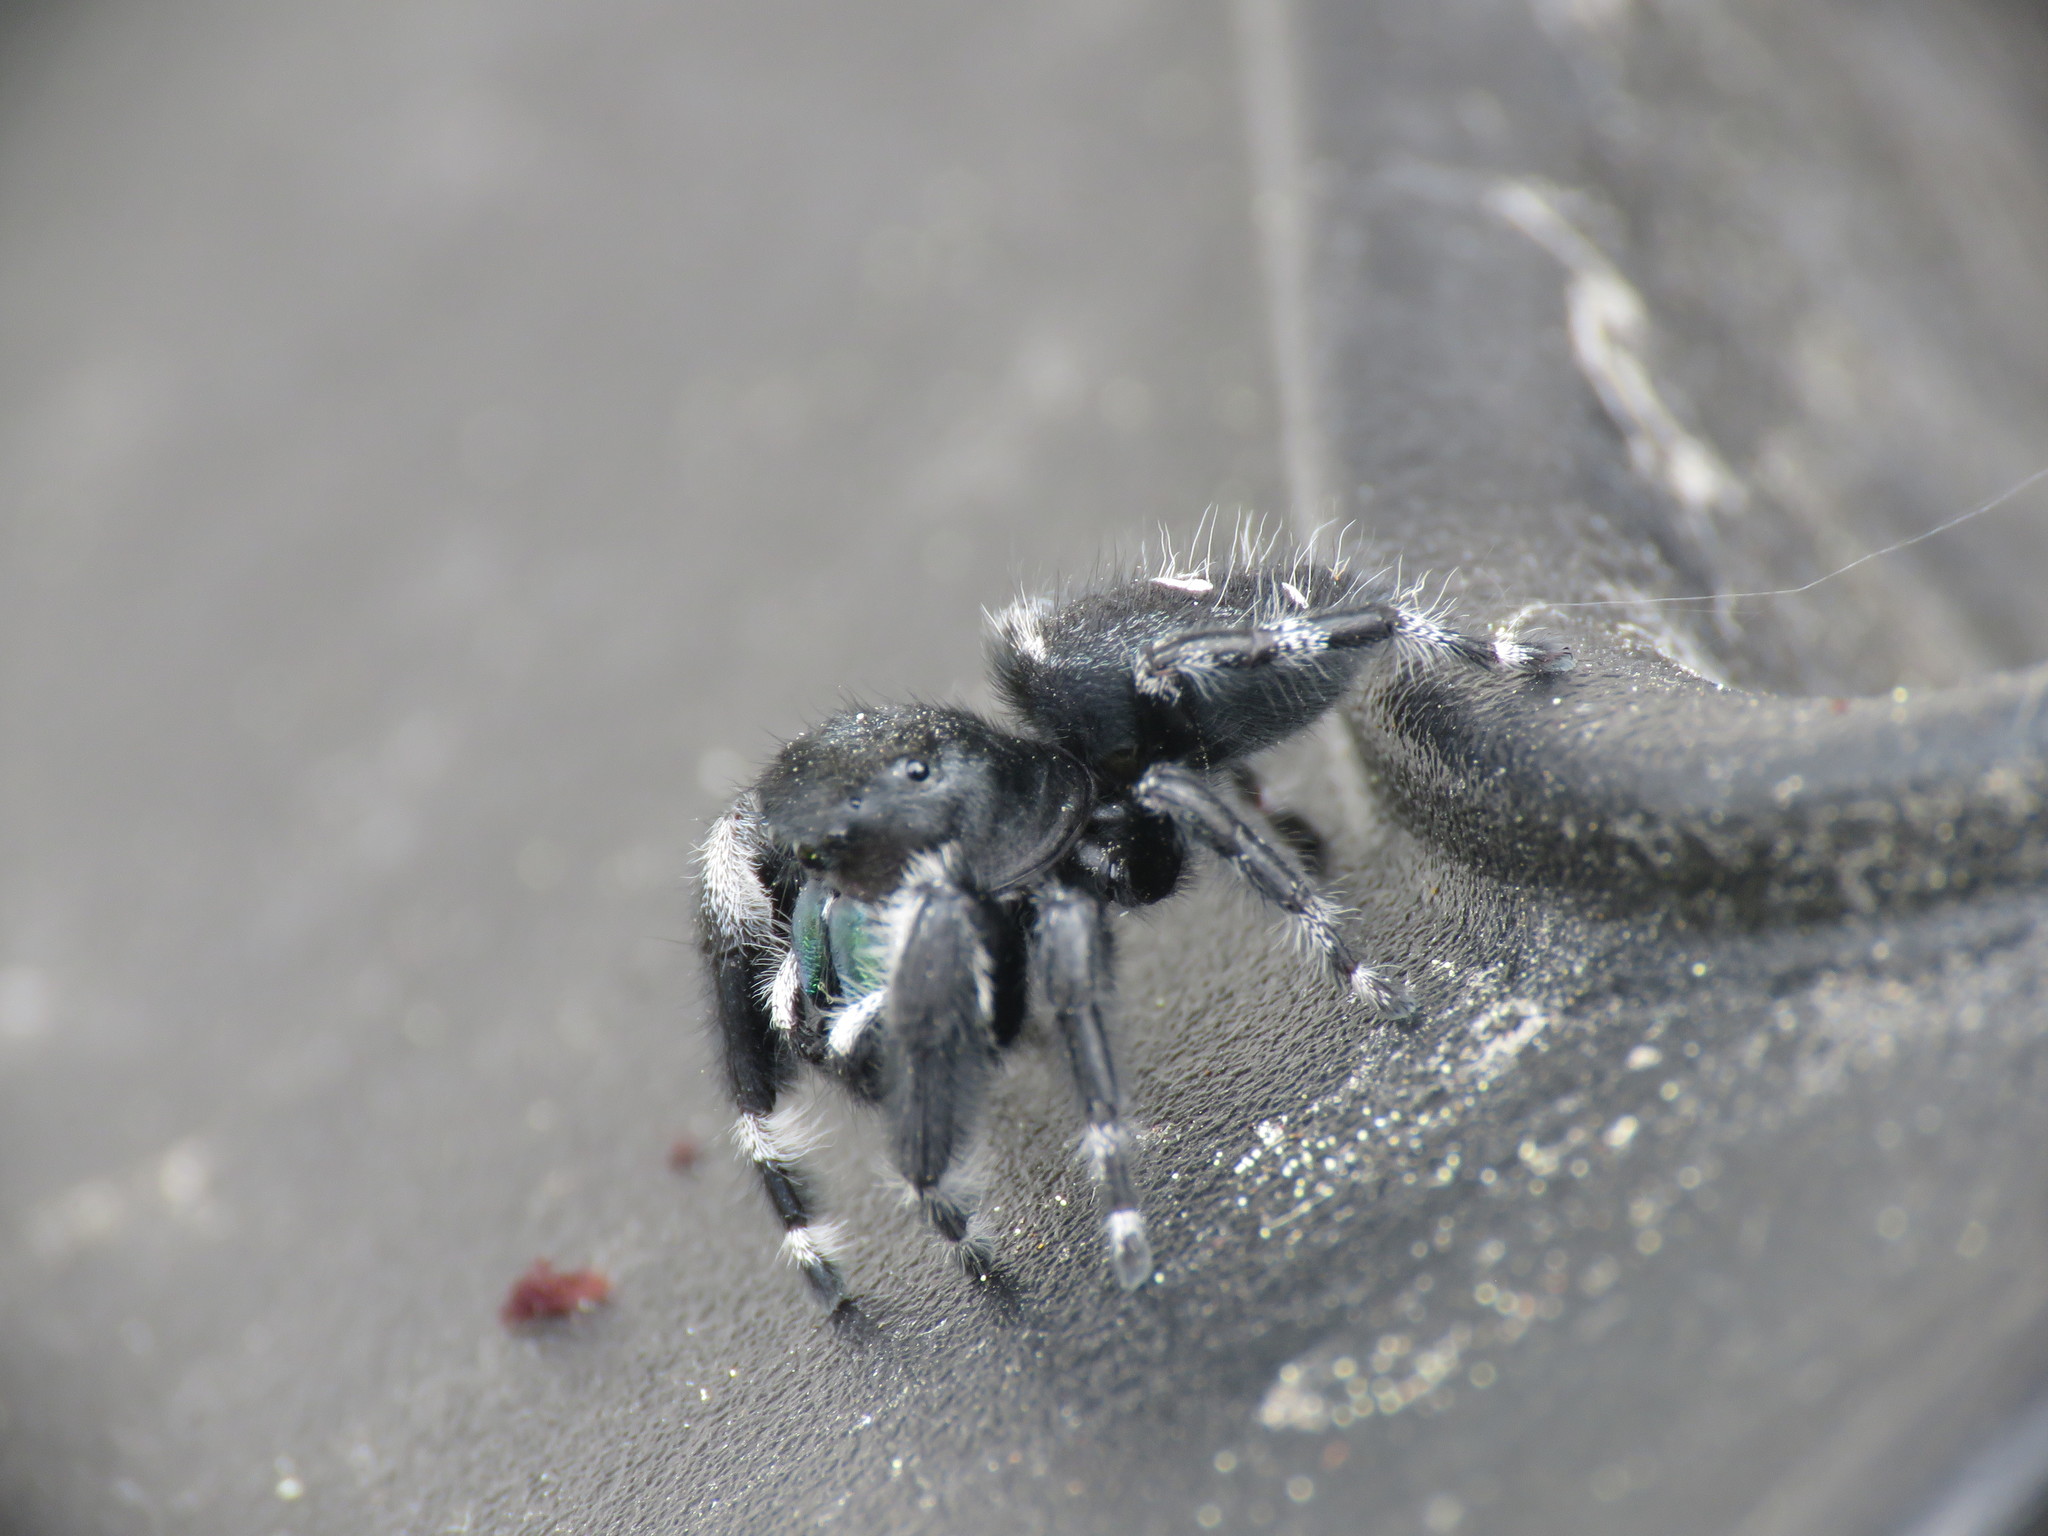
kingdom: Animalia
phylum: Arthropoda
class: Arachnida
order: Araneae
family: Salticidae
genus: Phidippus
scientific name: Phidippus audax
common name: Bold jumper
